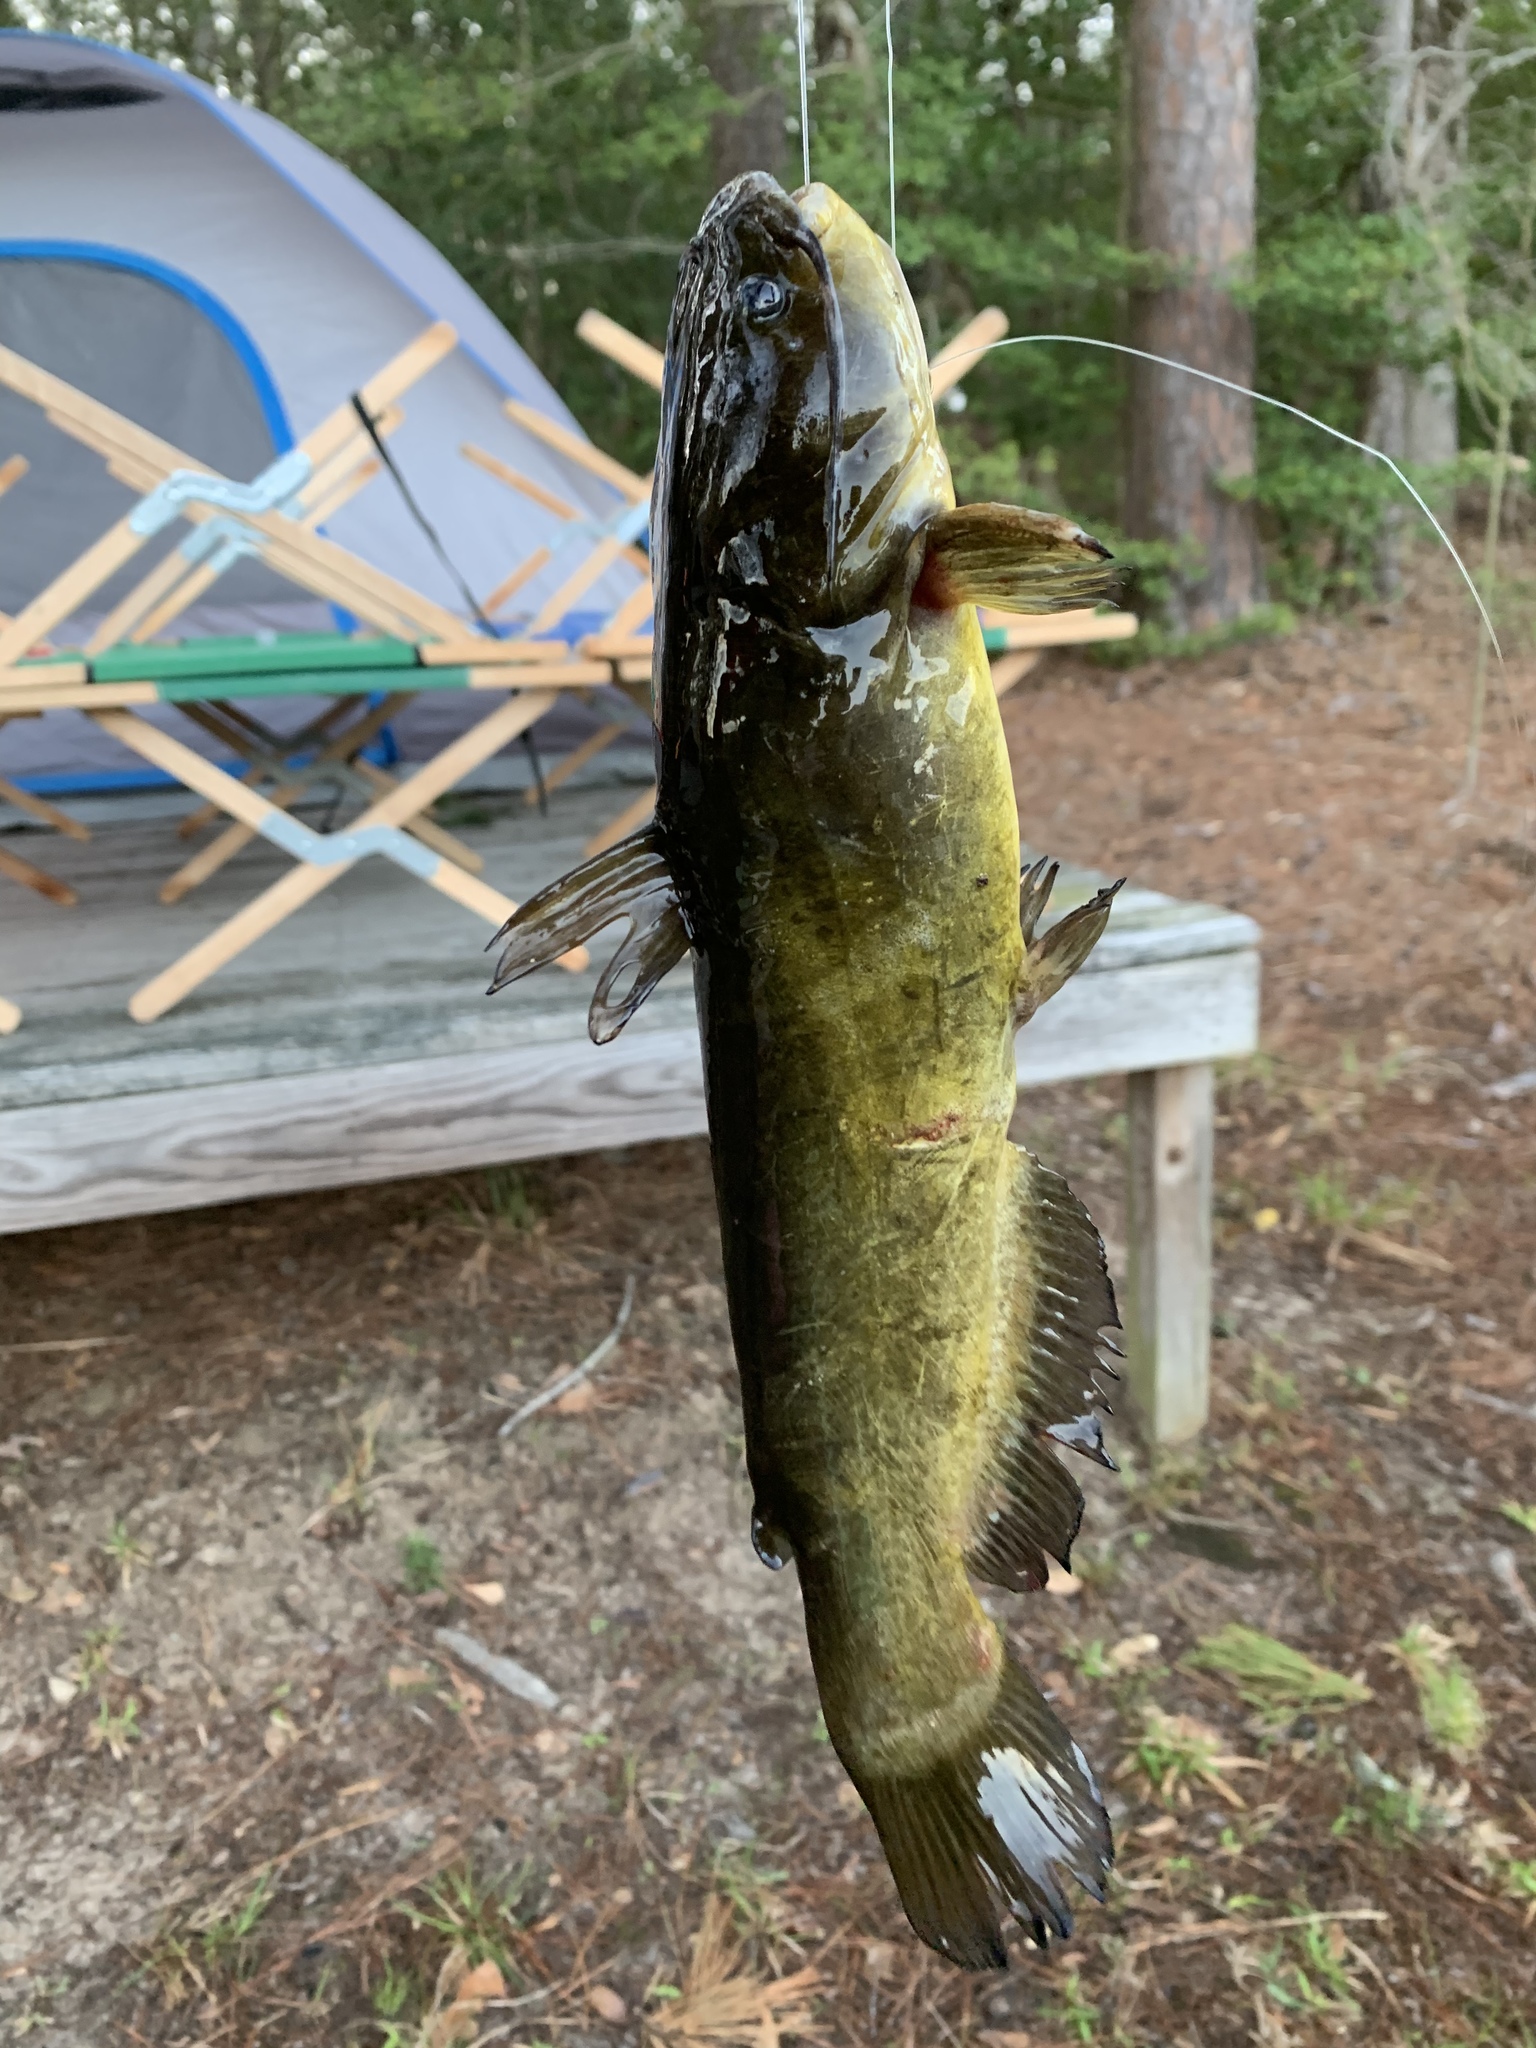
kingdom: Animalia
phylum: Chordata
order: Siluriformes
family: Ictaluridae
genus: Ameiurus
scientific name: Ameiurus natalis
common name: Yellow bullhead
